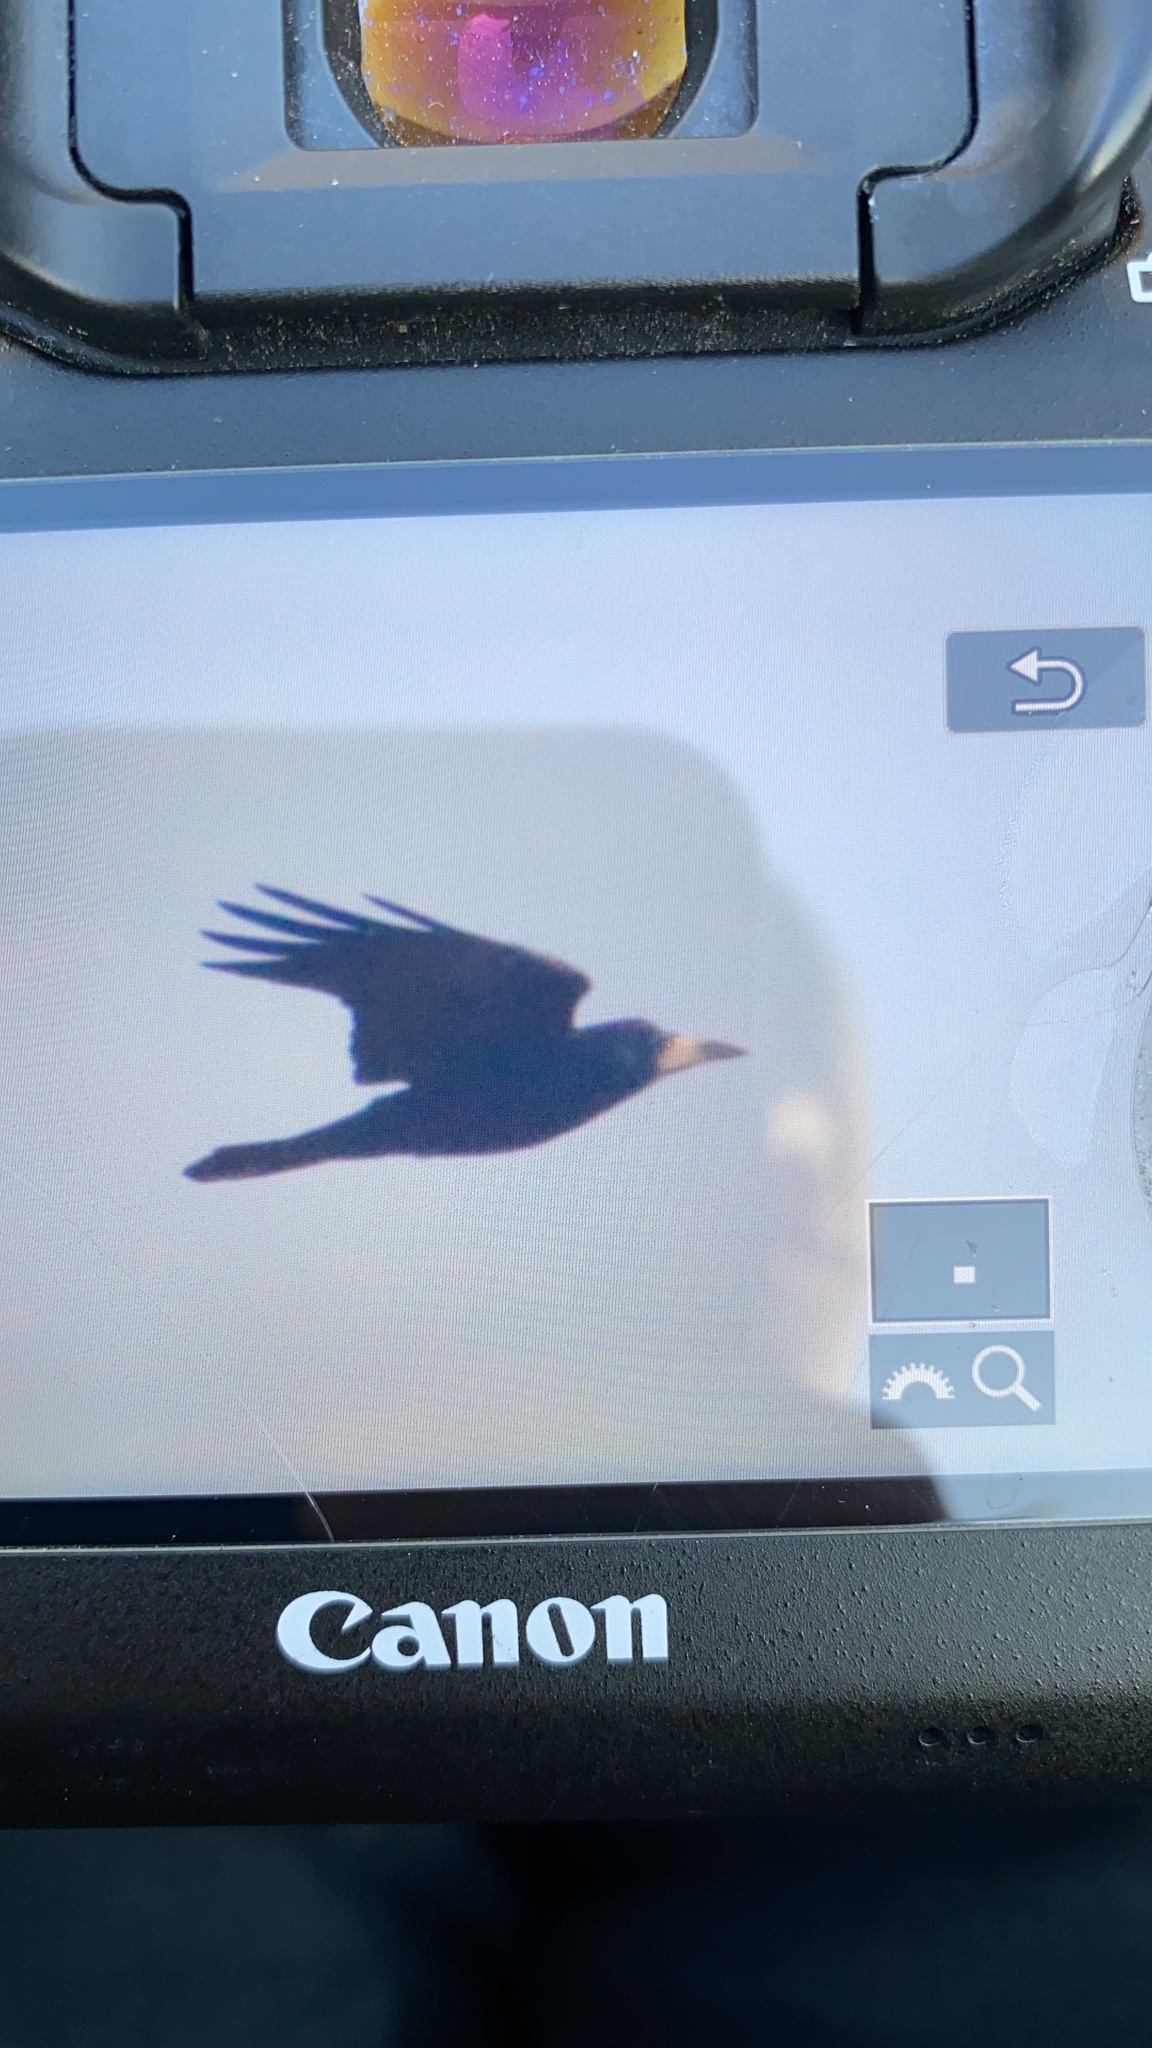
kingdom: Animalia
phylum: Chordata
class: Aves
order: Passeriformes
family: Corvidae
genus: Corvus
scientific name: Corvus frugilegus
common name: Rook
